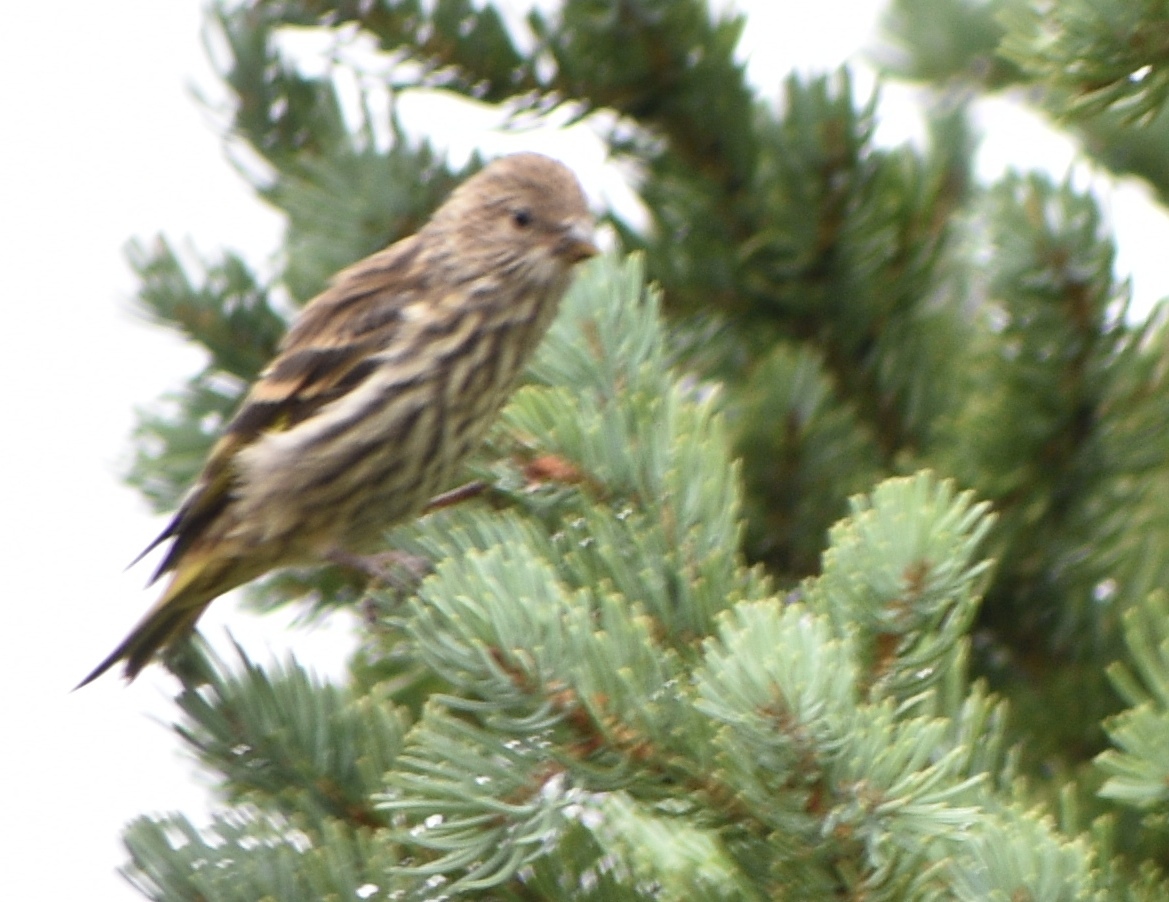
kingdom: Animalia
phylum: Chordata
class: Aves
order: Passeriformes
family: Fringillidae
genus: Spinus
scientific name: Spinus pinus
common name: Pine siskin
